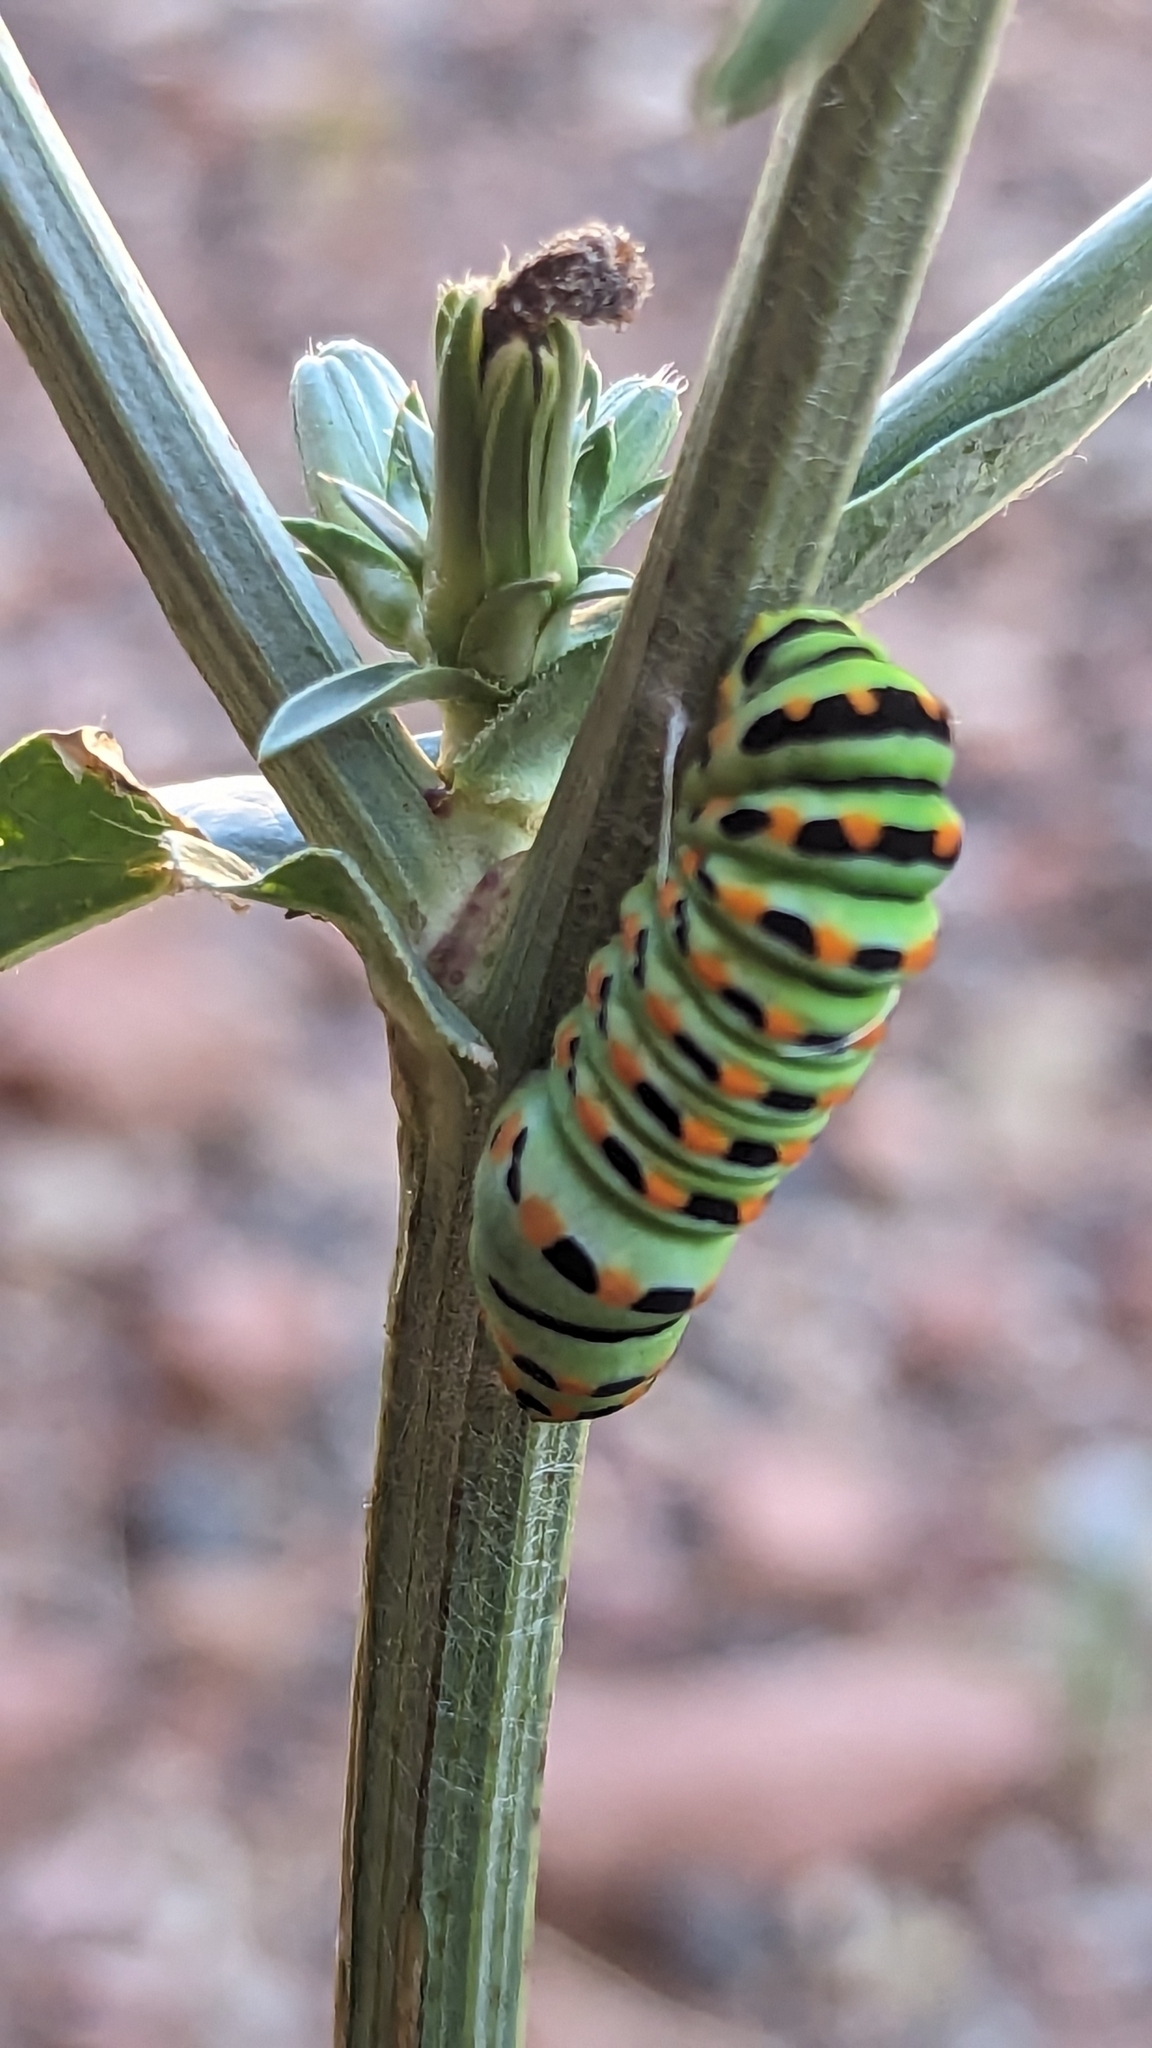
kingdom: Animalia
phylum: Arthropoda
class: Insecta
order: Lepidoptera
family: Papilionidae
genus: Papilio
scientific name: Papilio
